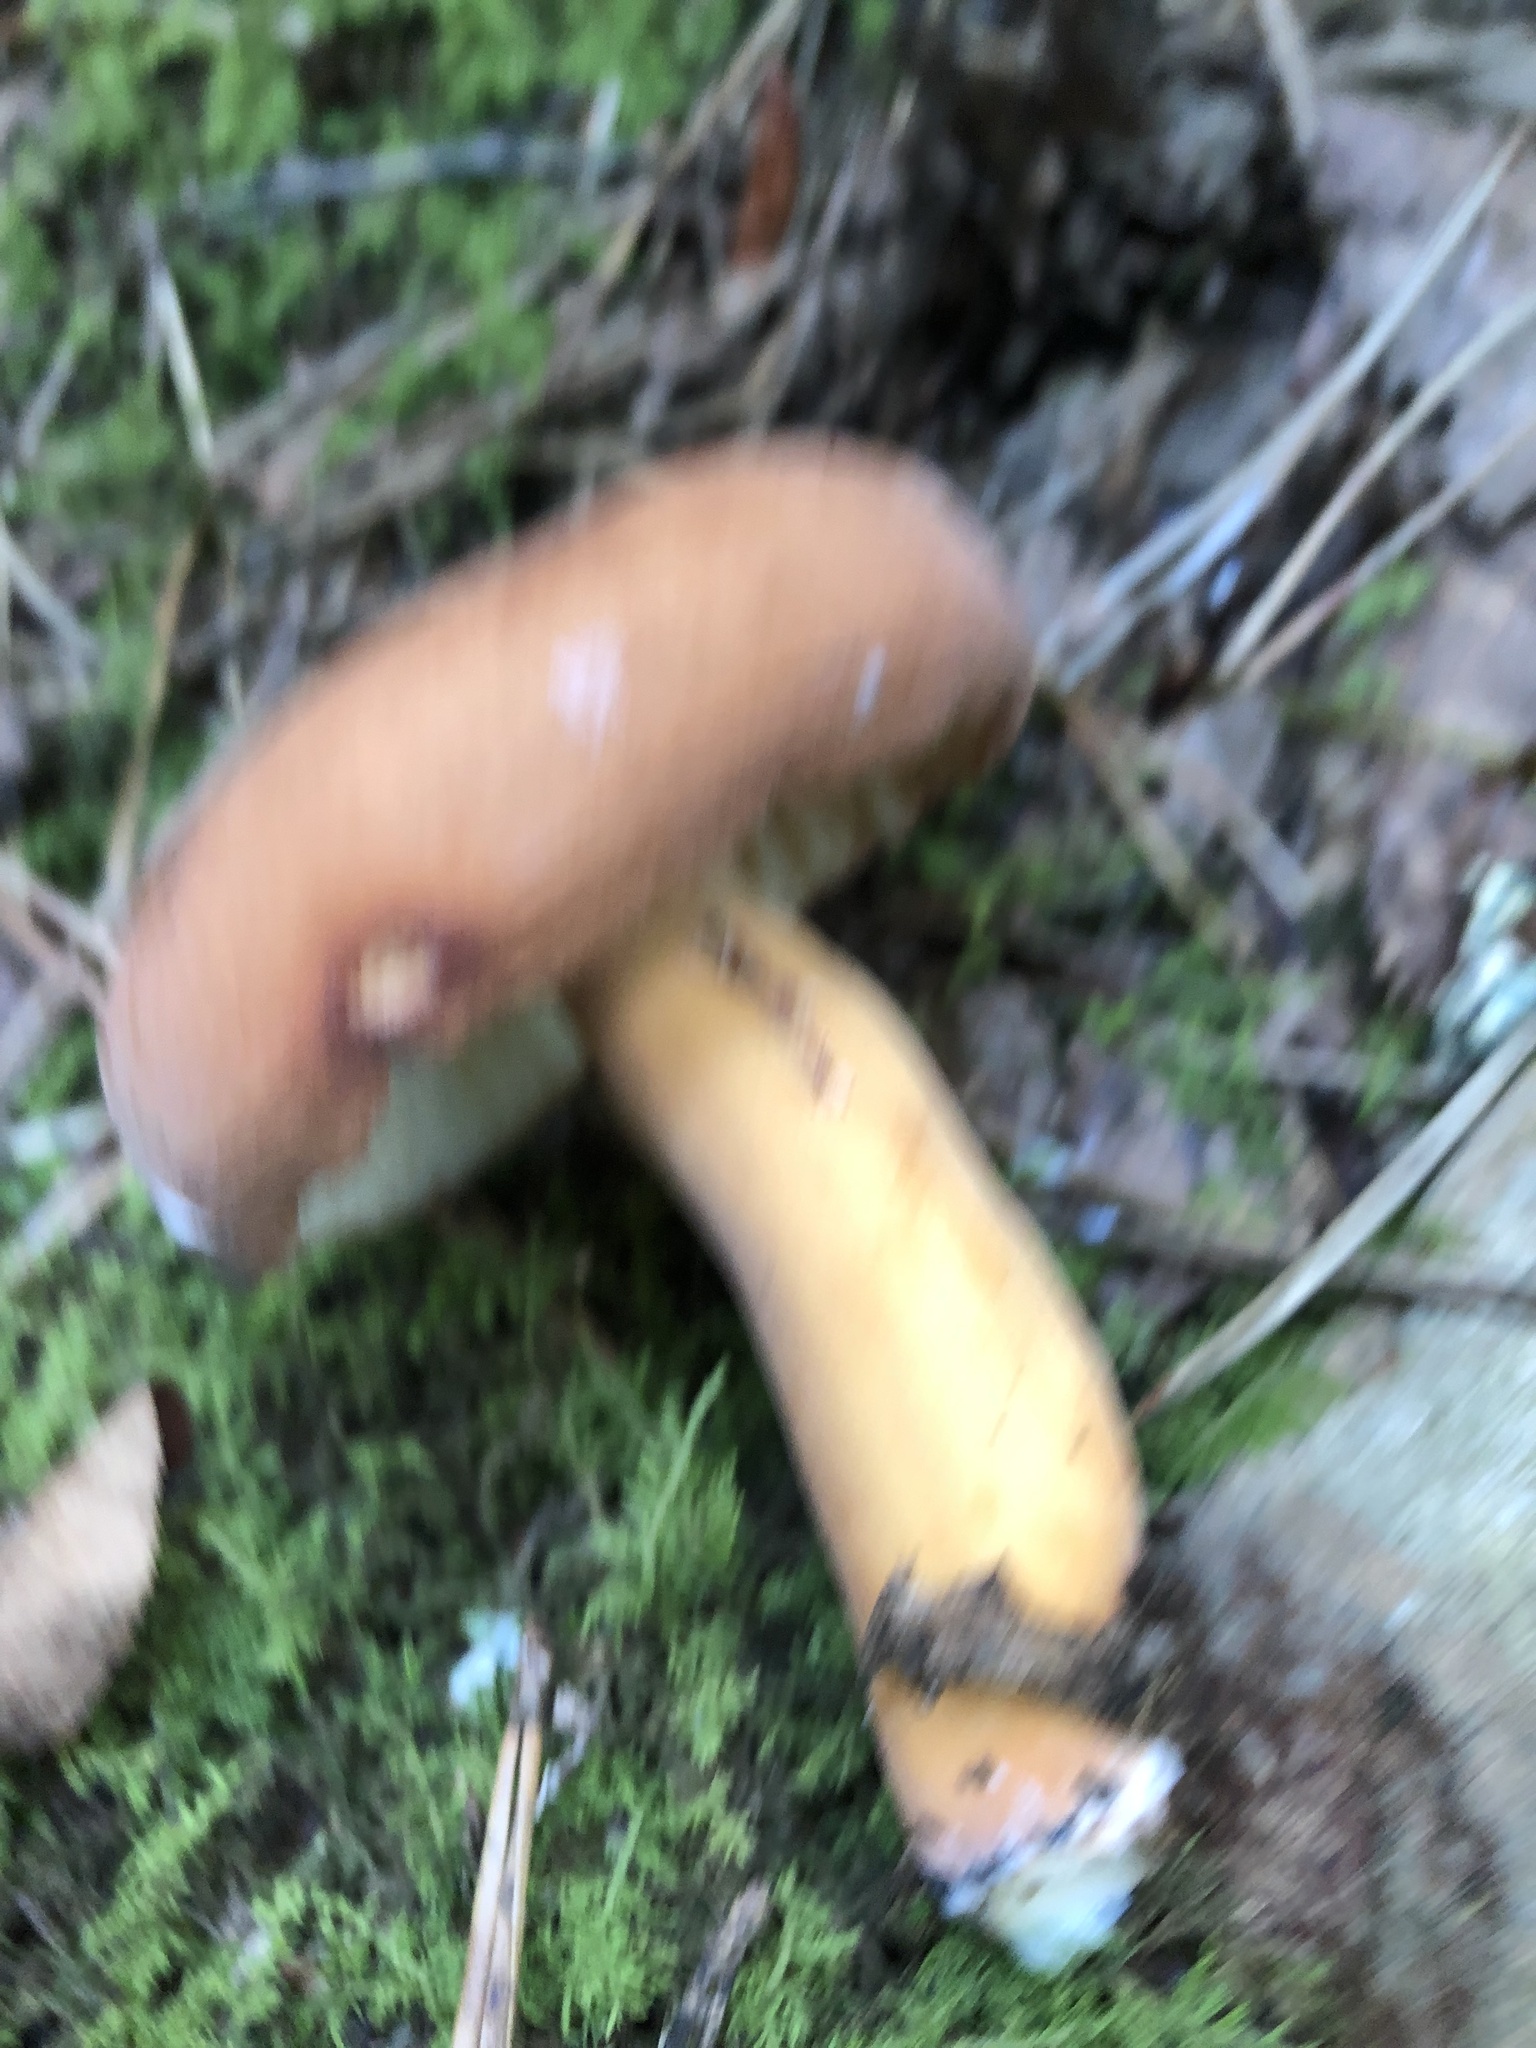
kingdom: Fungi
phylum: Basidiomycota
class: Agaricomycetes
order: Russulales
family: Russulaceae
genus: Lactifluus
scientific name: Lactifluus volemus
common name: Fishy milkcap
